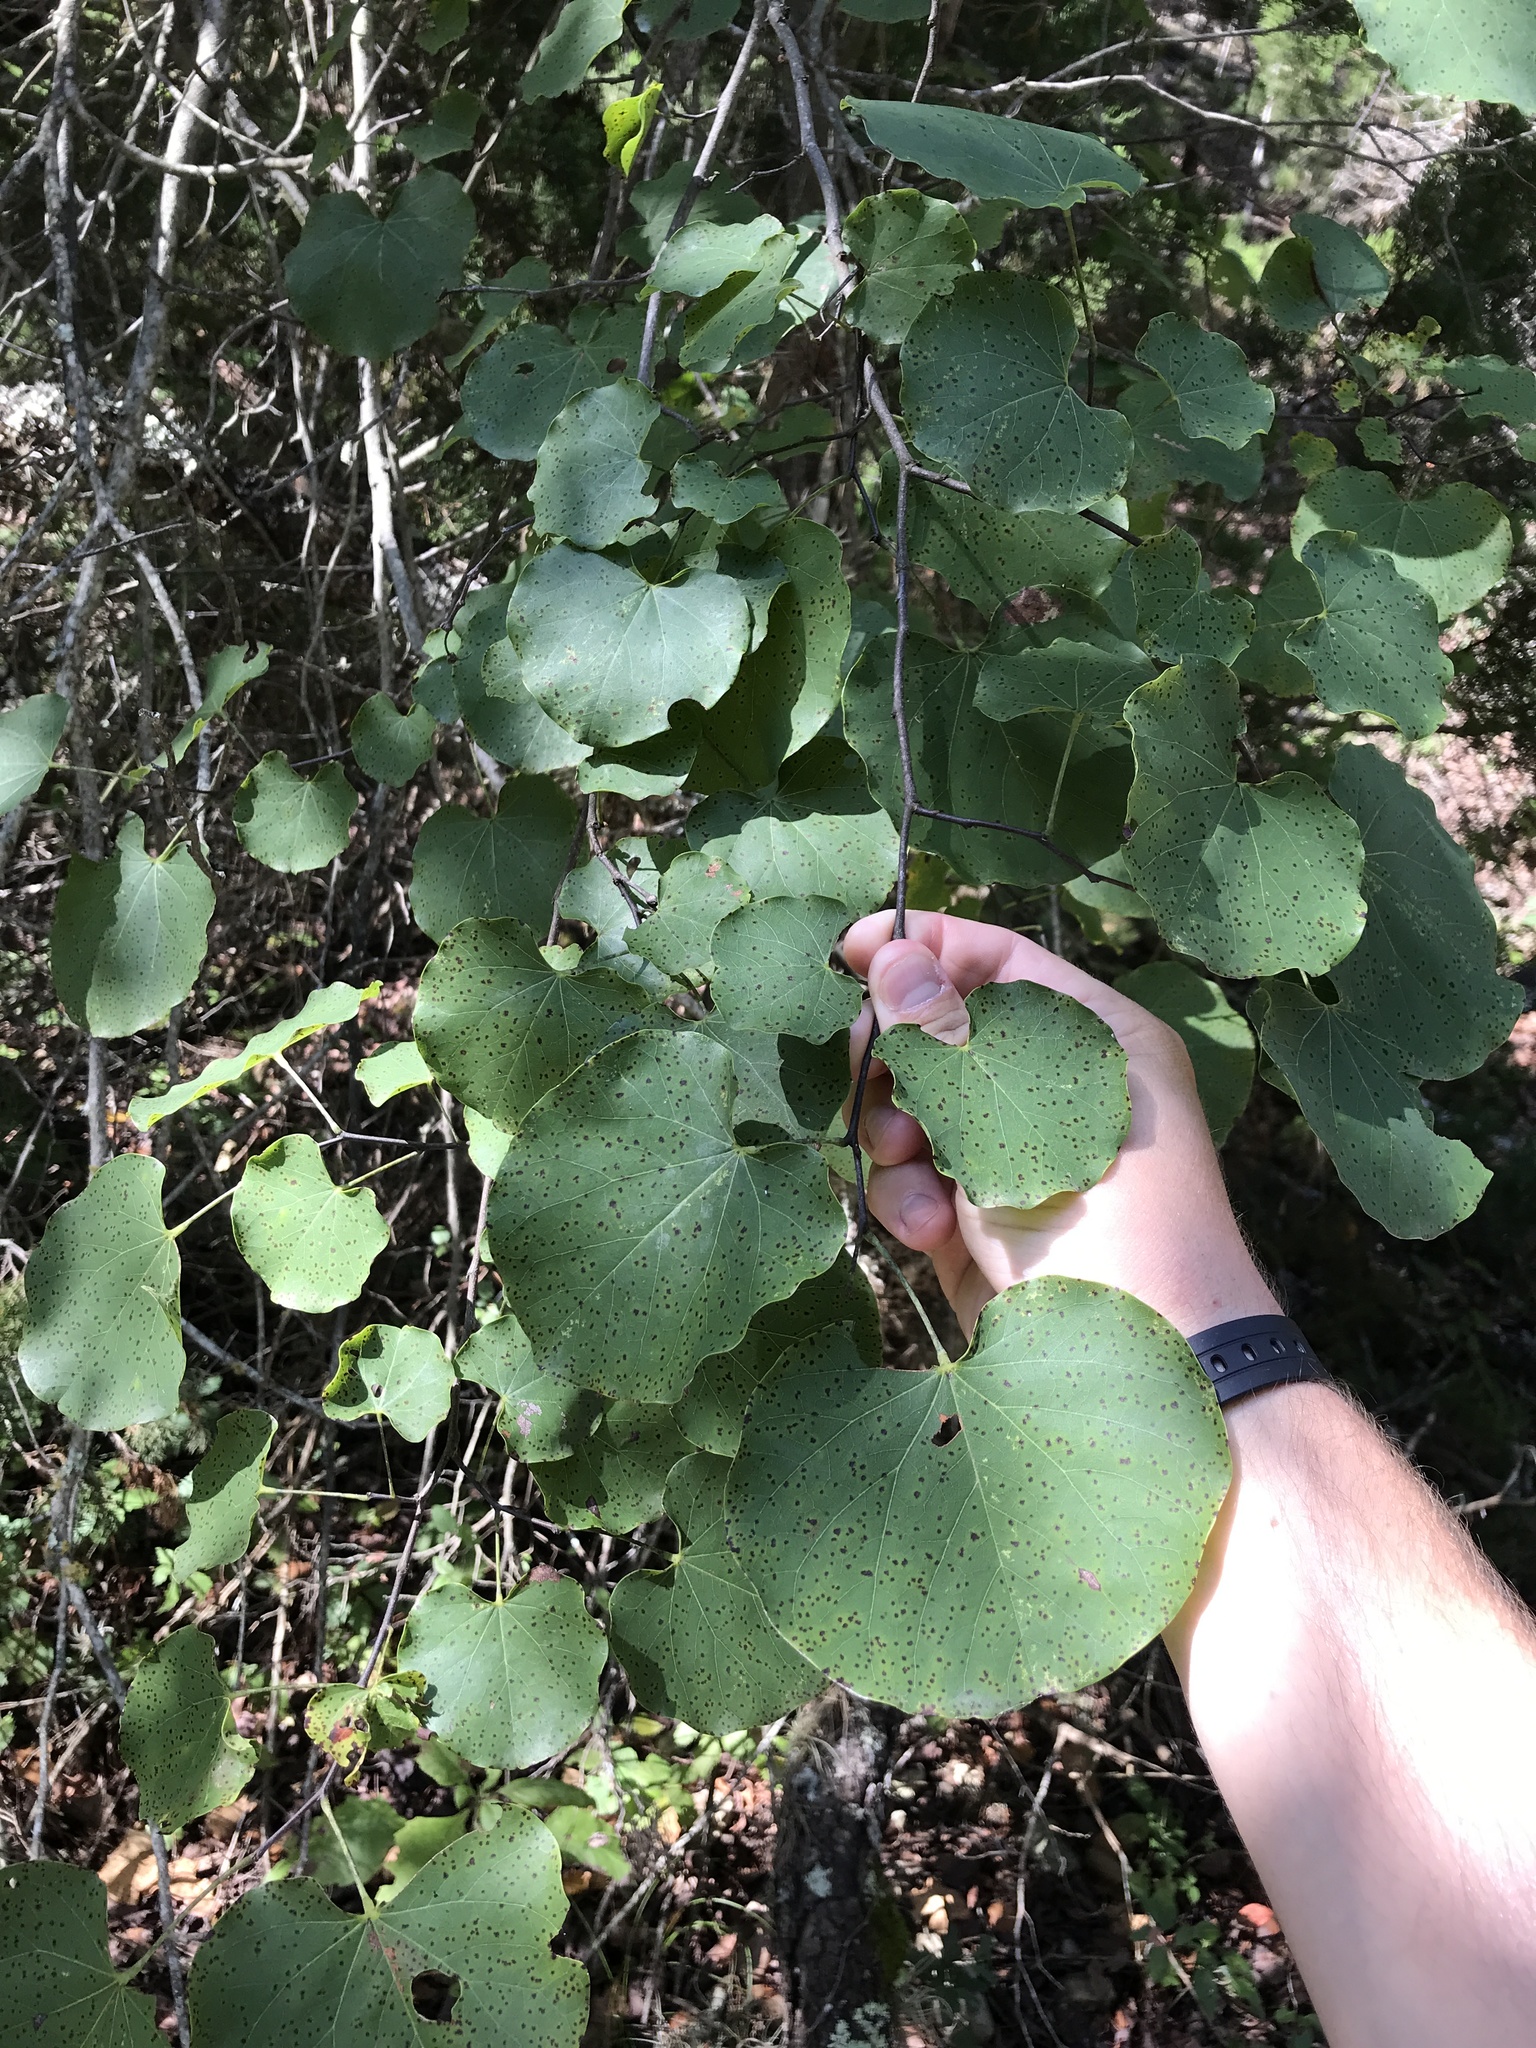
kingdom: Plantae
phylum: Tracheophyta
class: Magnoliopsida
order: Fabales
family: Fabaceae
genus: Cercis
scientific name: Cercis canadensis
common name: Eastern redbud
